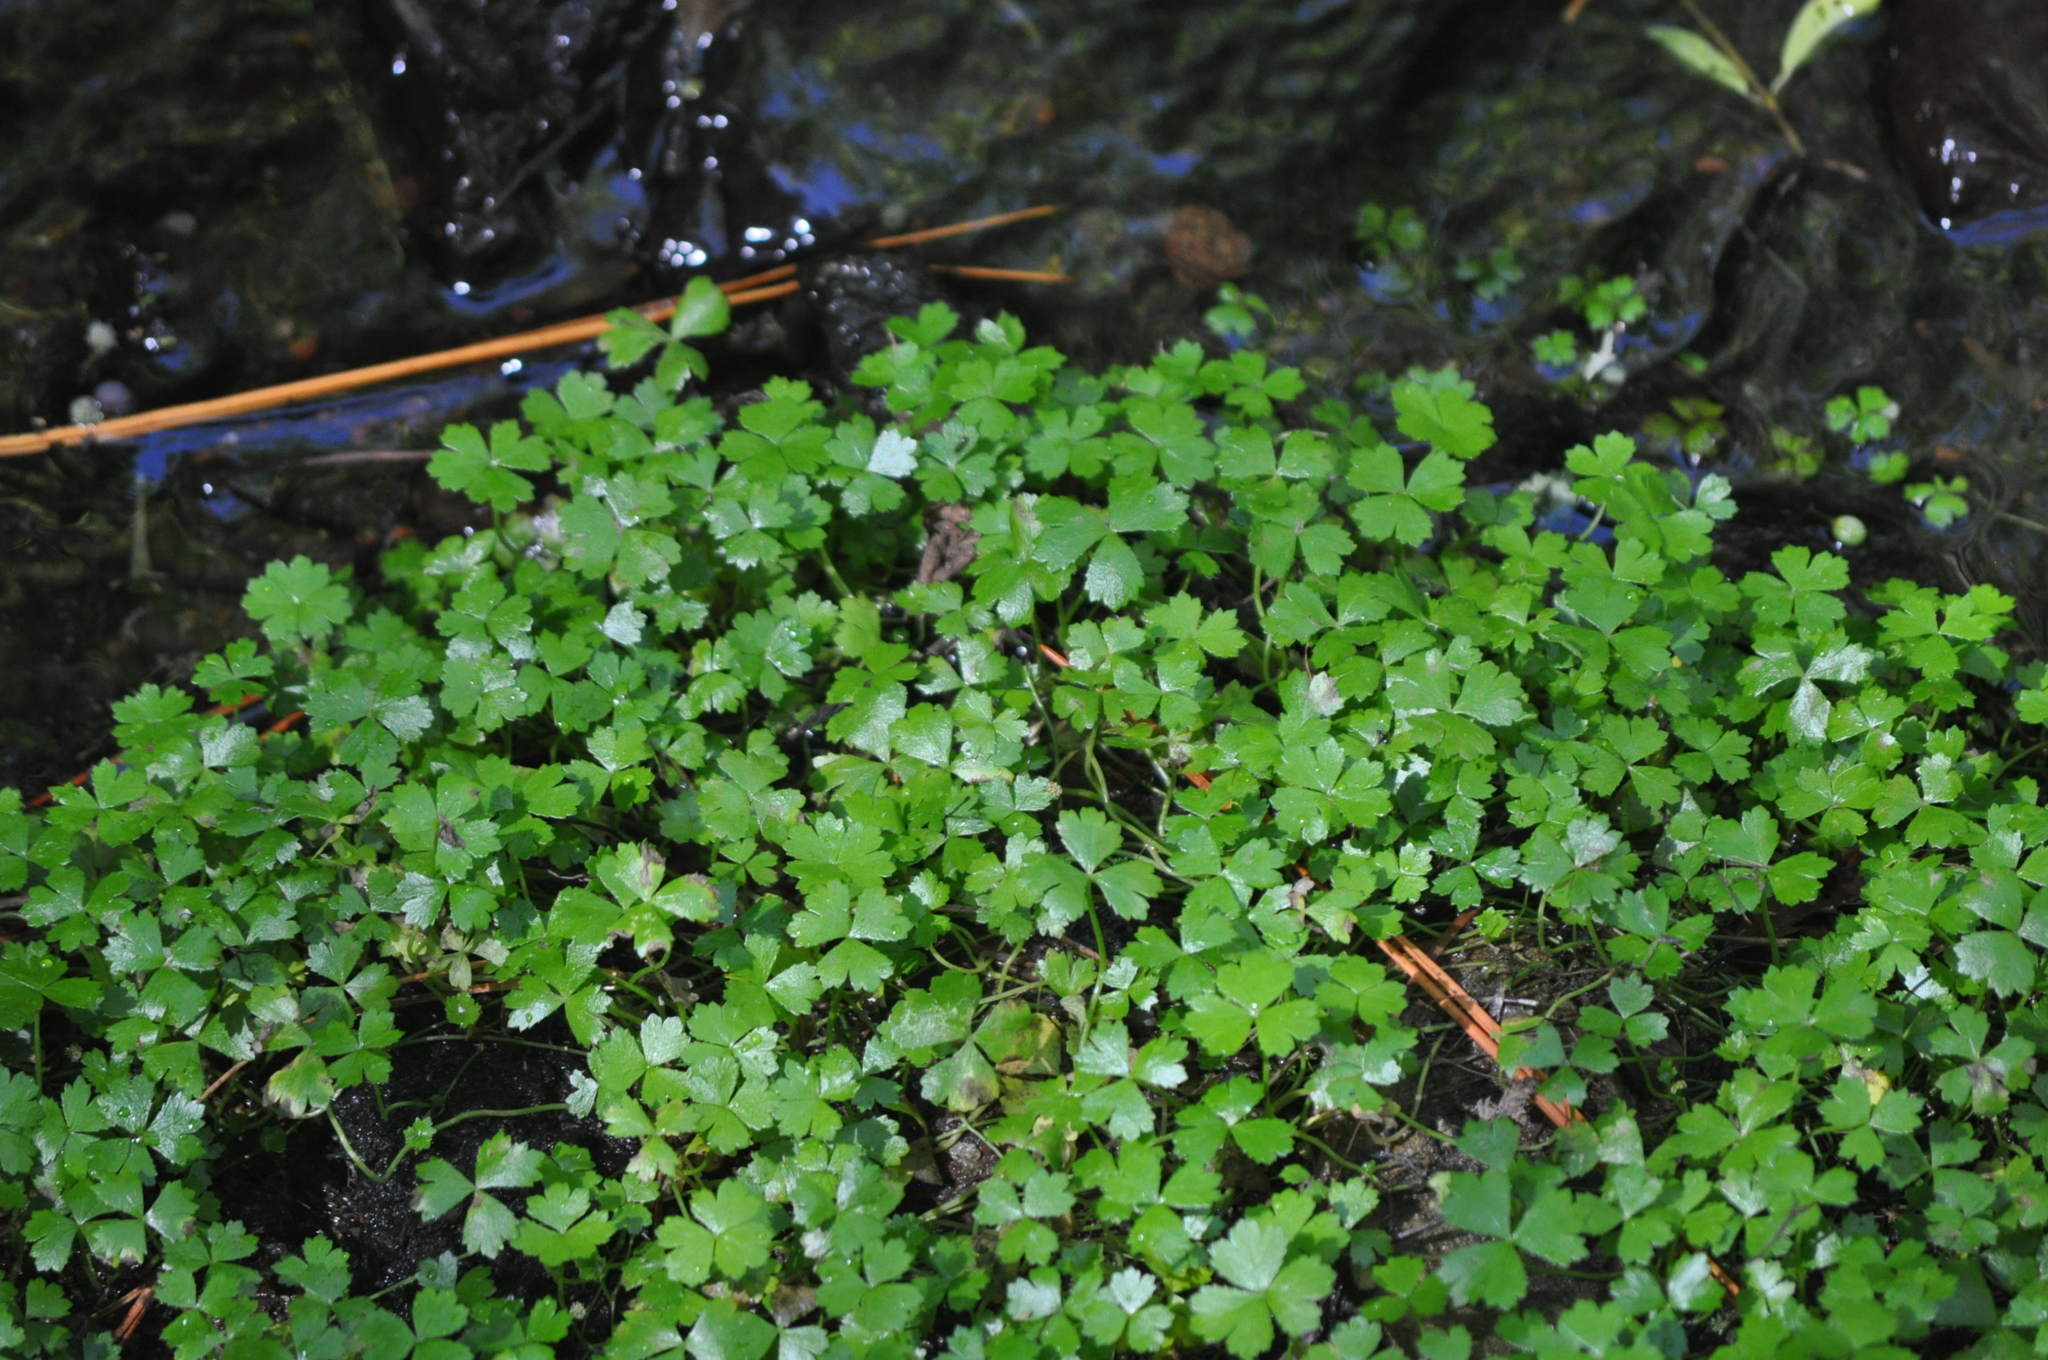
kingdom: Plantae
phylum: Tracheophyta
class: Magnoliopsida
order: Apiales
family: Araliaceae
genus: Hydrocotyle
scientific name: Hydrocotyle tripartita
